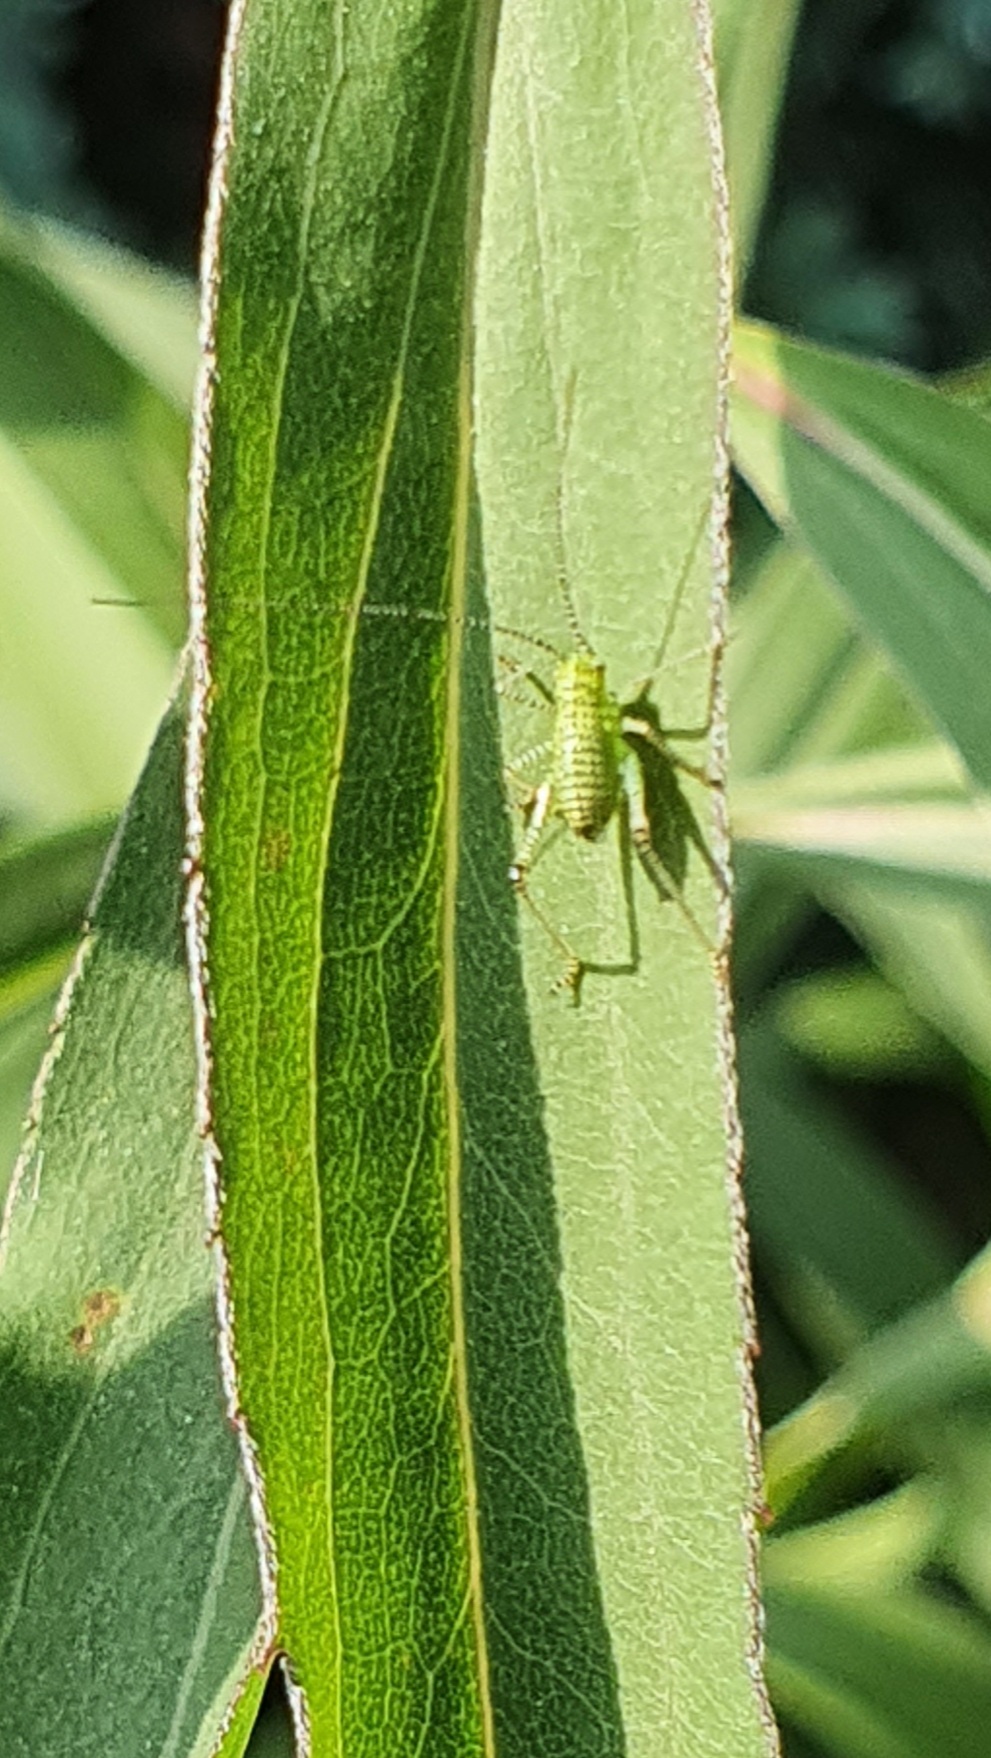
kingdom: Animalia
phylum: Arthropoda
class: Insecta
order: Orthoptera
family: Tettigoniidae
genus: Leptophyes
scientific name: Leptophyes punctatissima
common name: Speckled bush-cricket
